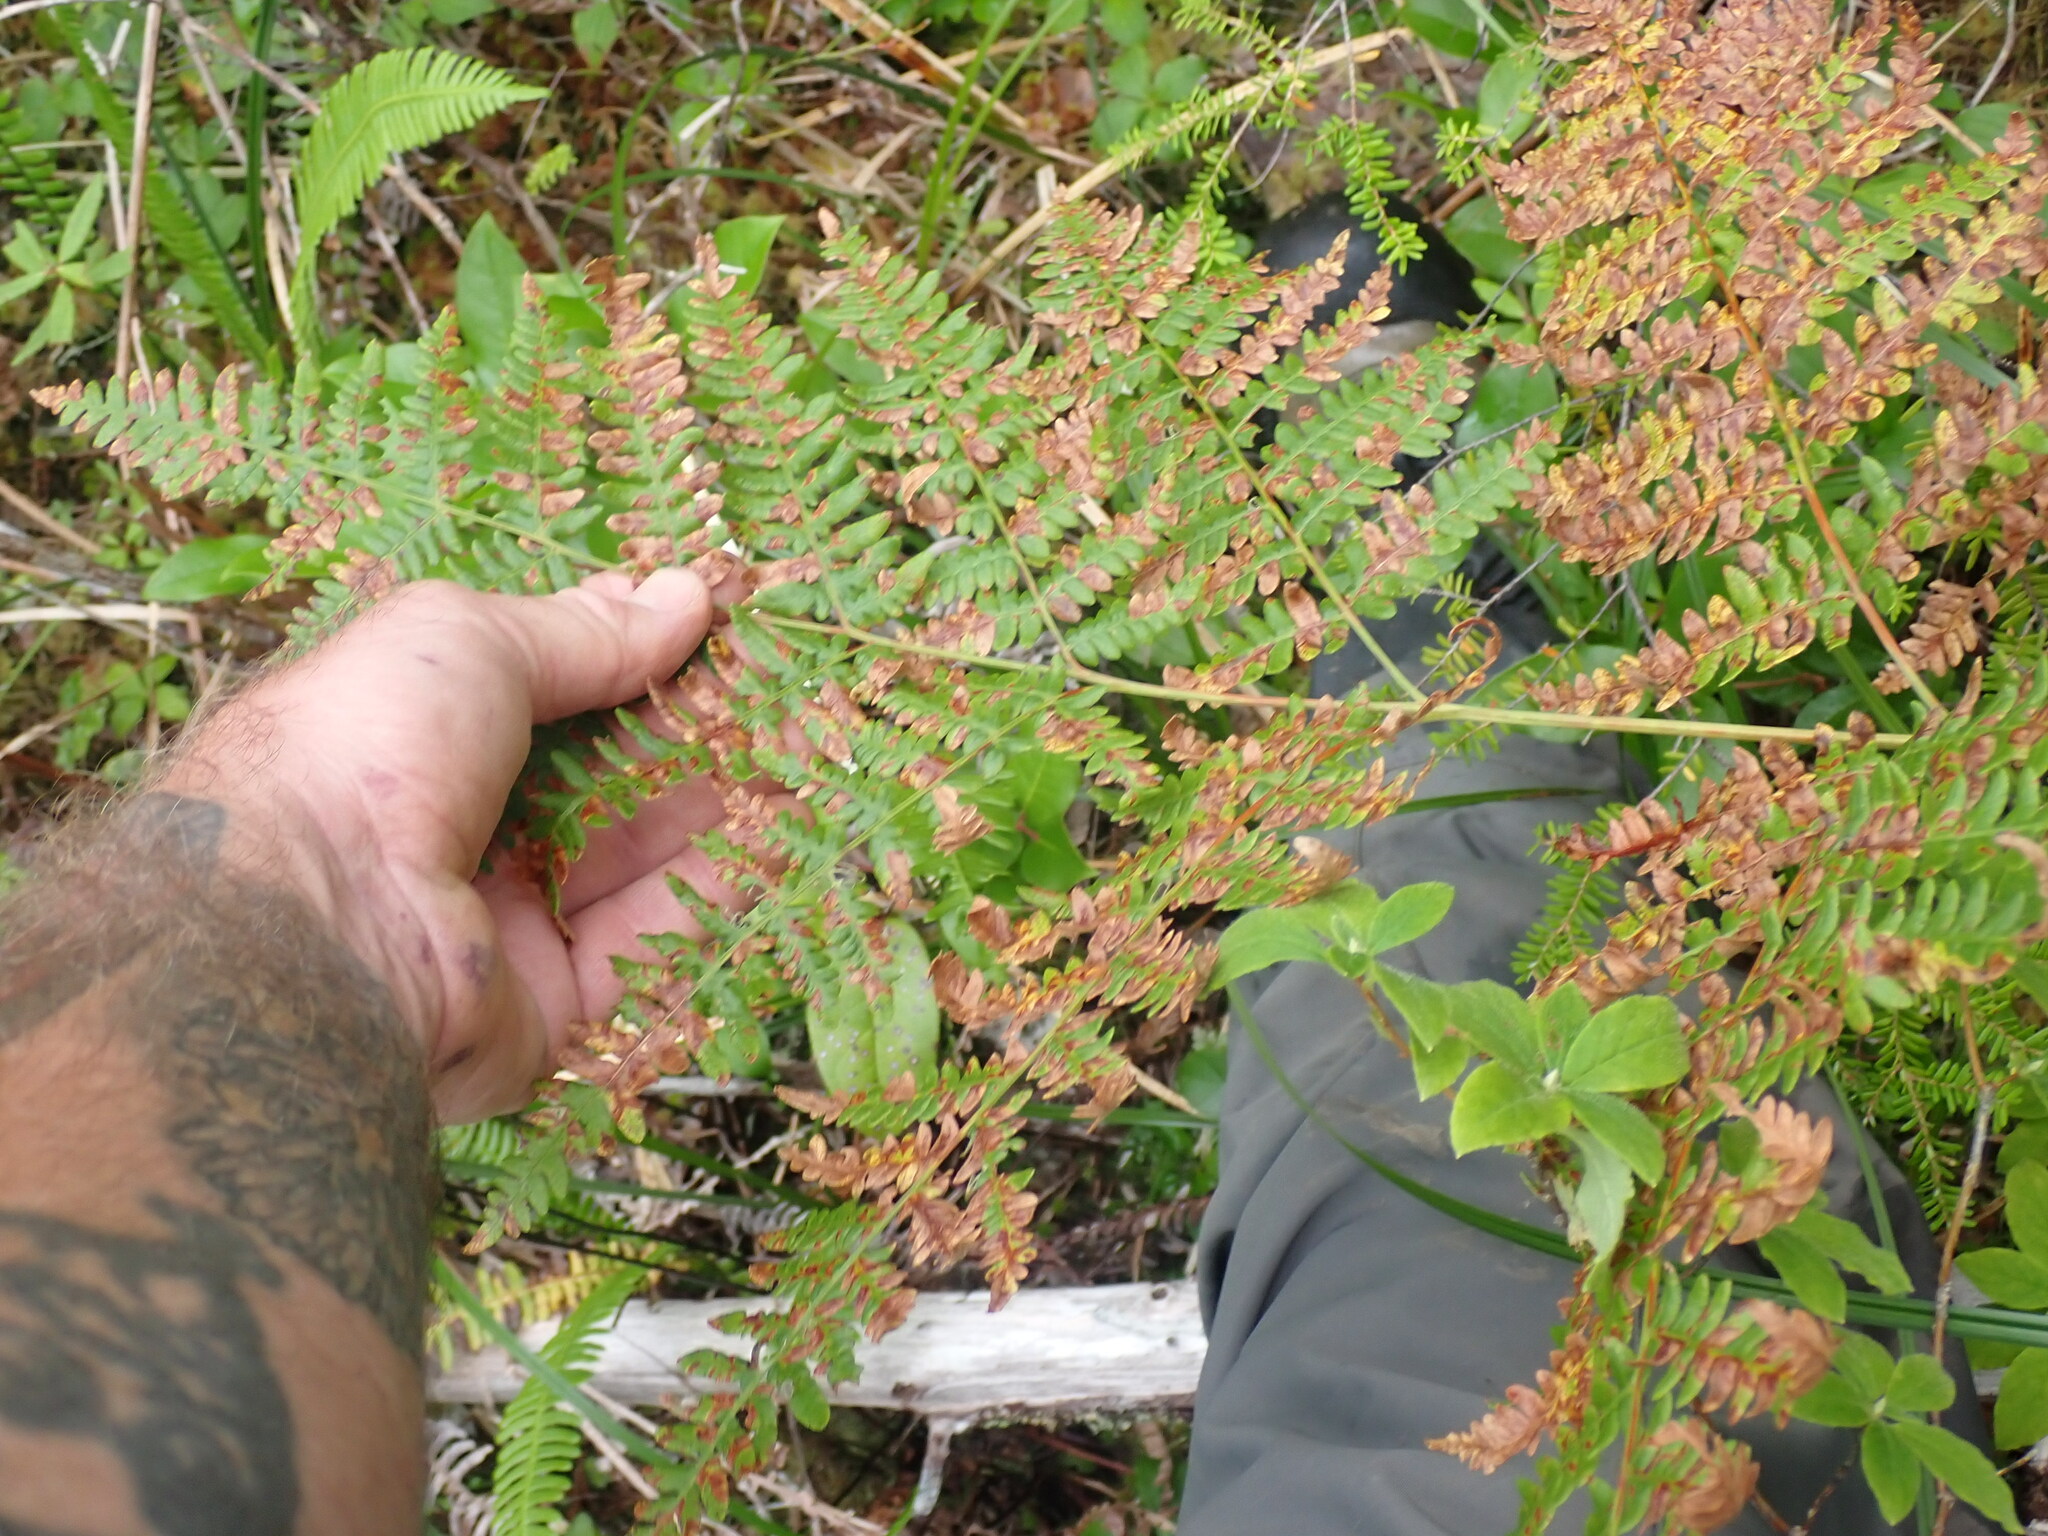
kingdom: Plantae
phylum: Tracheophyta
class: Polypodiopsida
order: Polypodiales
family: Dennstaedtiaceae
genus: Pteridium
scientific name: Pteridium aquilinum
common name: Bracken
